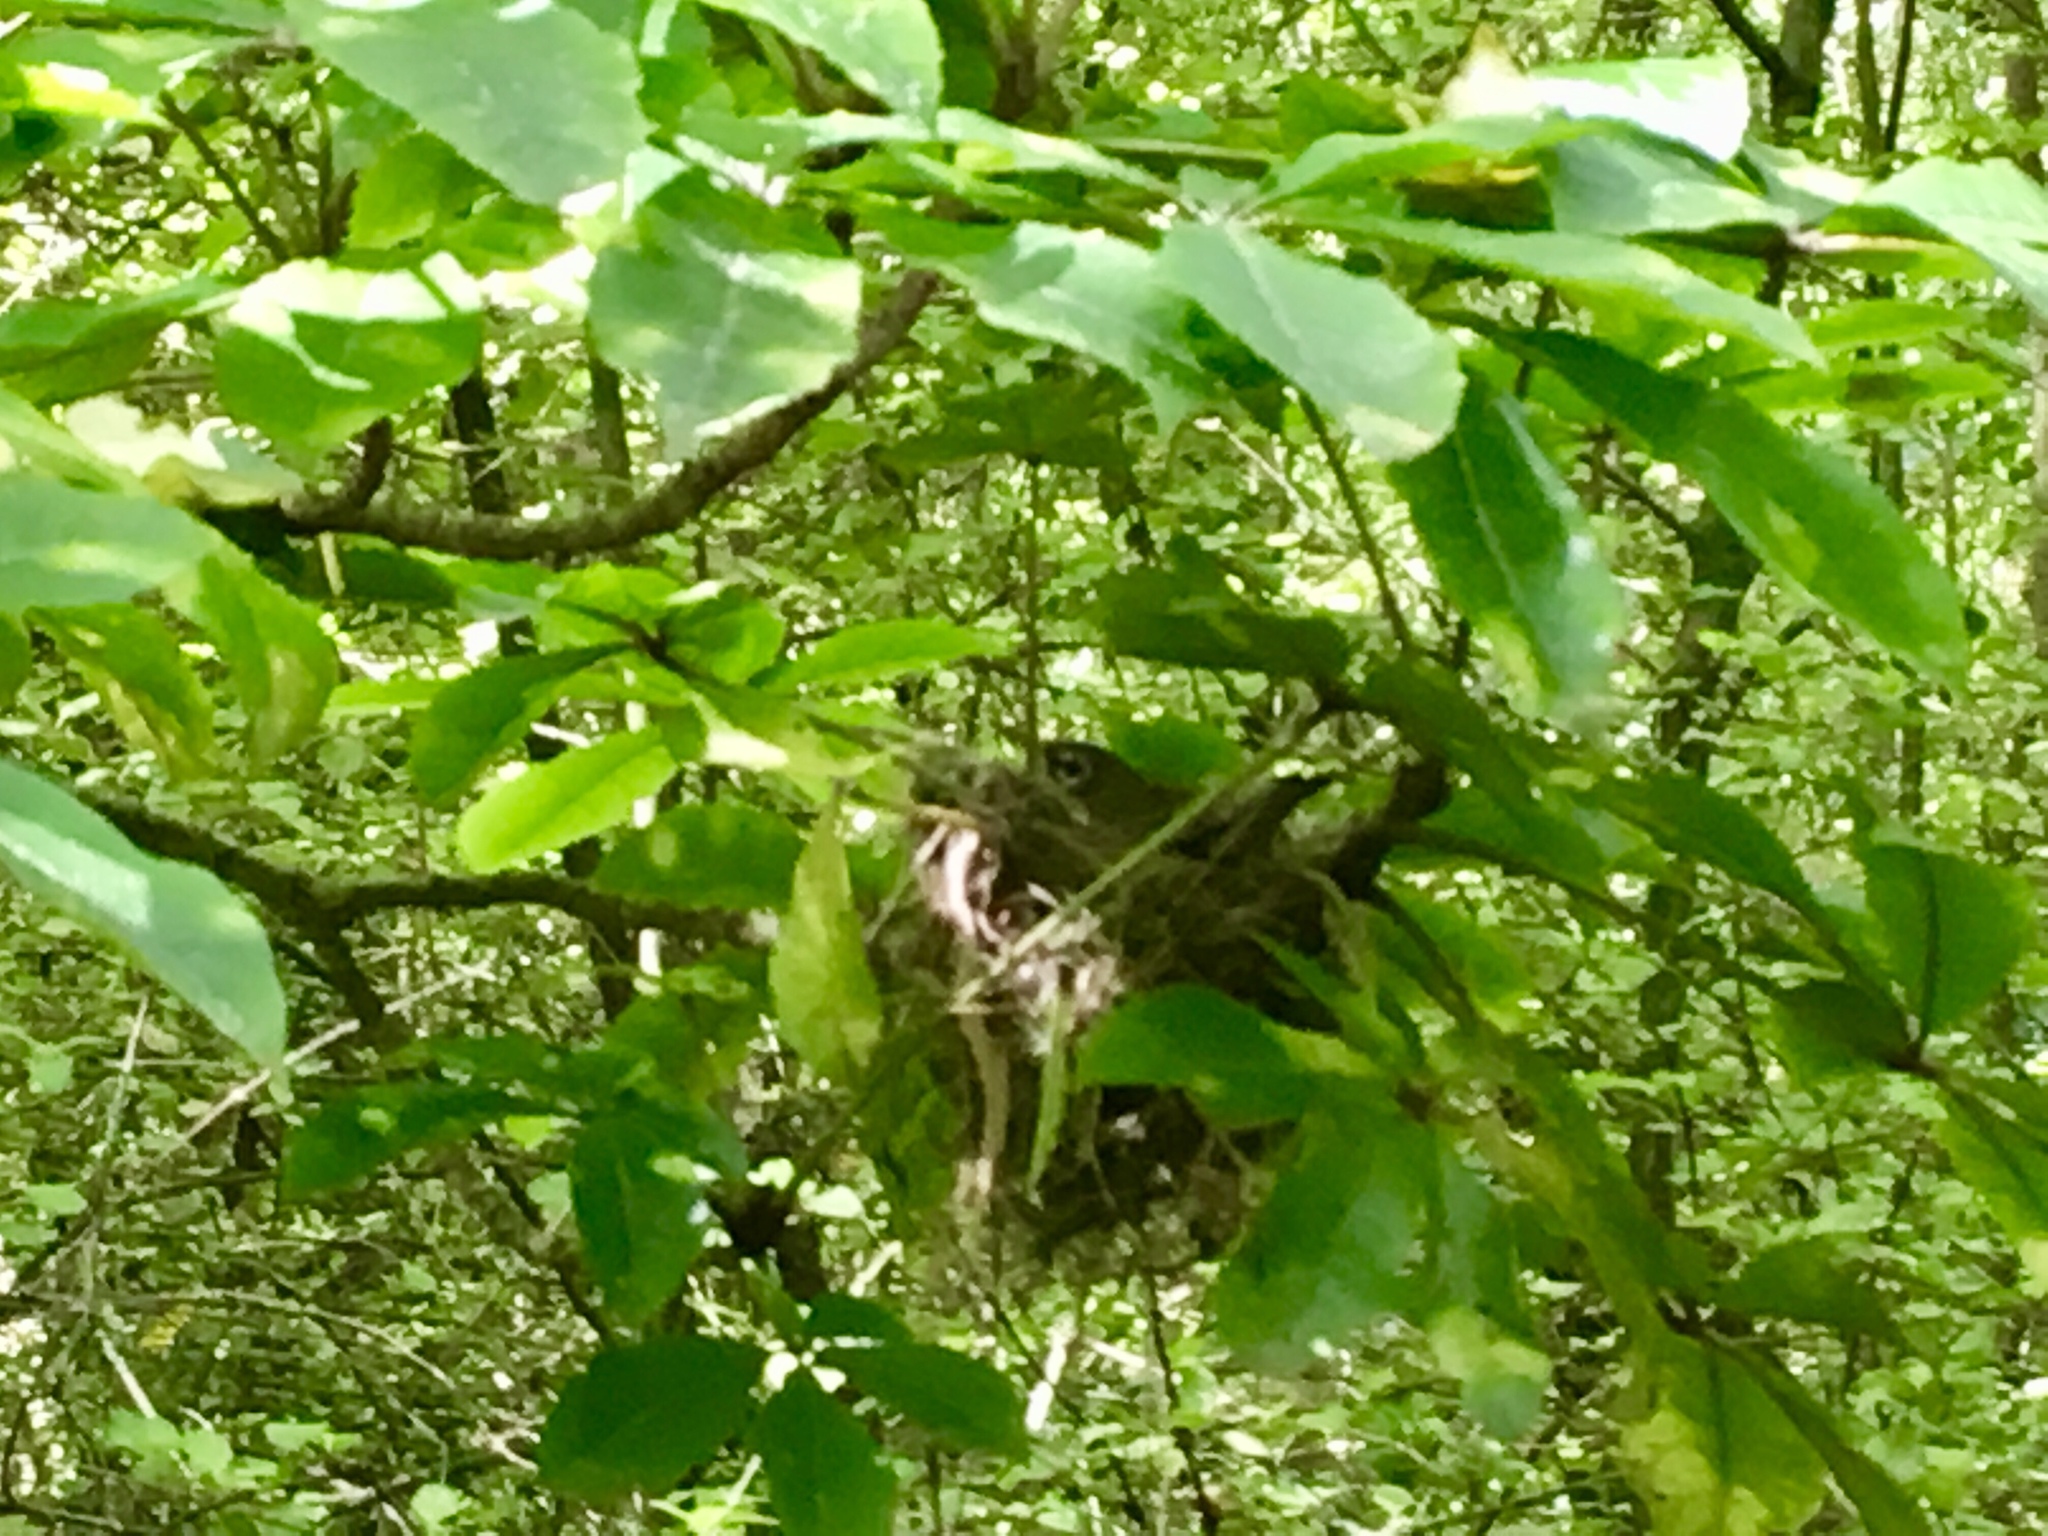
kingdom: Animalia
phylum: Chordata
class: Aves
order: Passeriformes
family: Zosteropidae
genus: Zosterops
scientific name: Zosterops lateralis
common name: Silvereye
